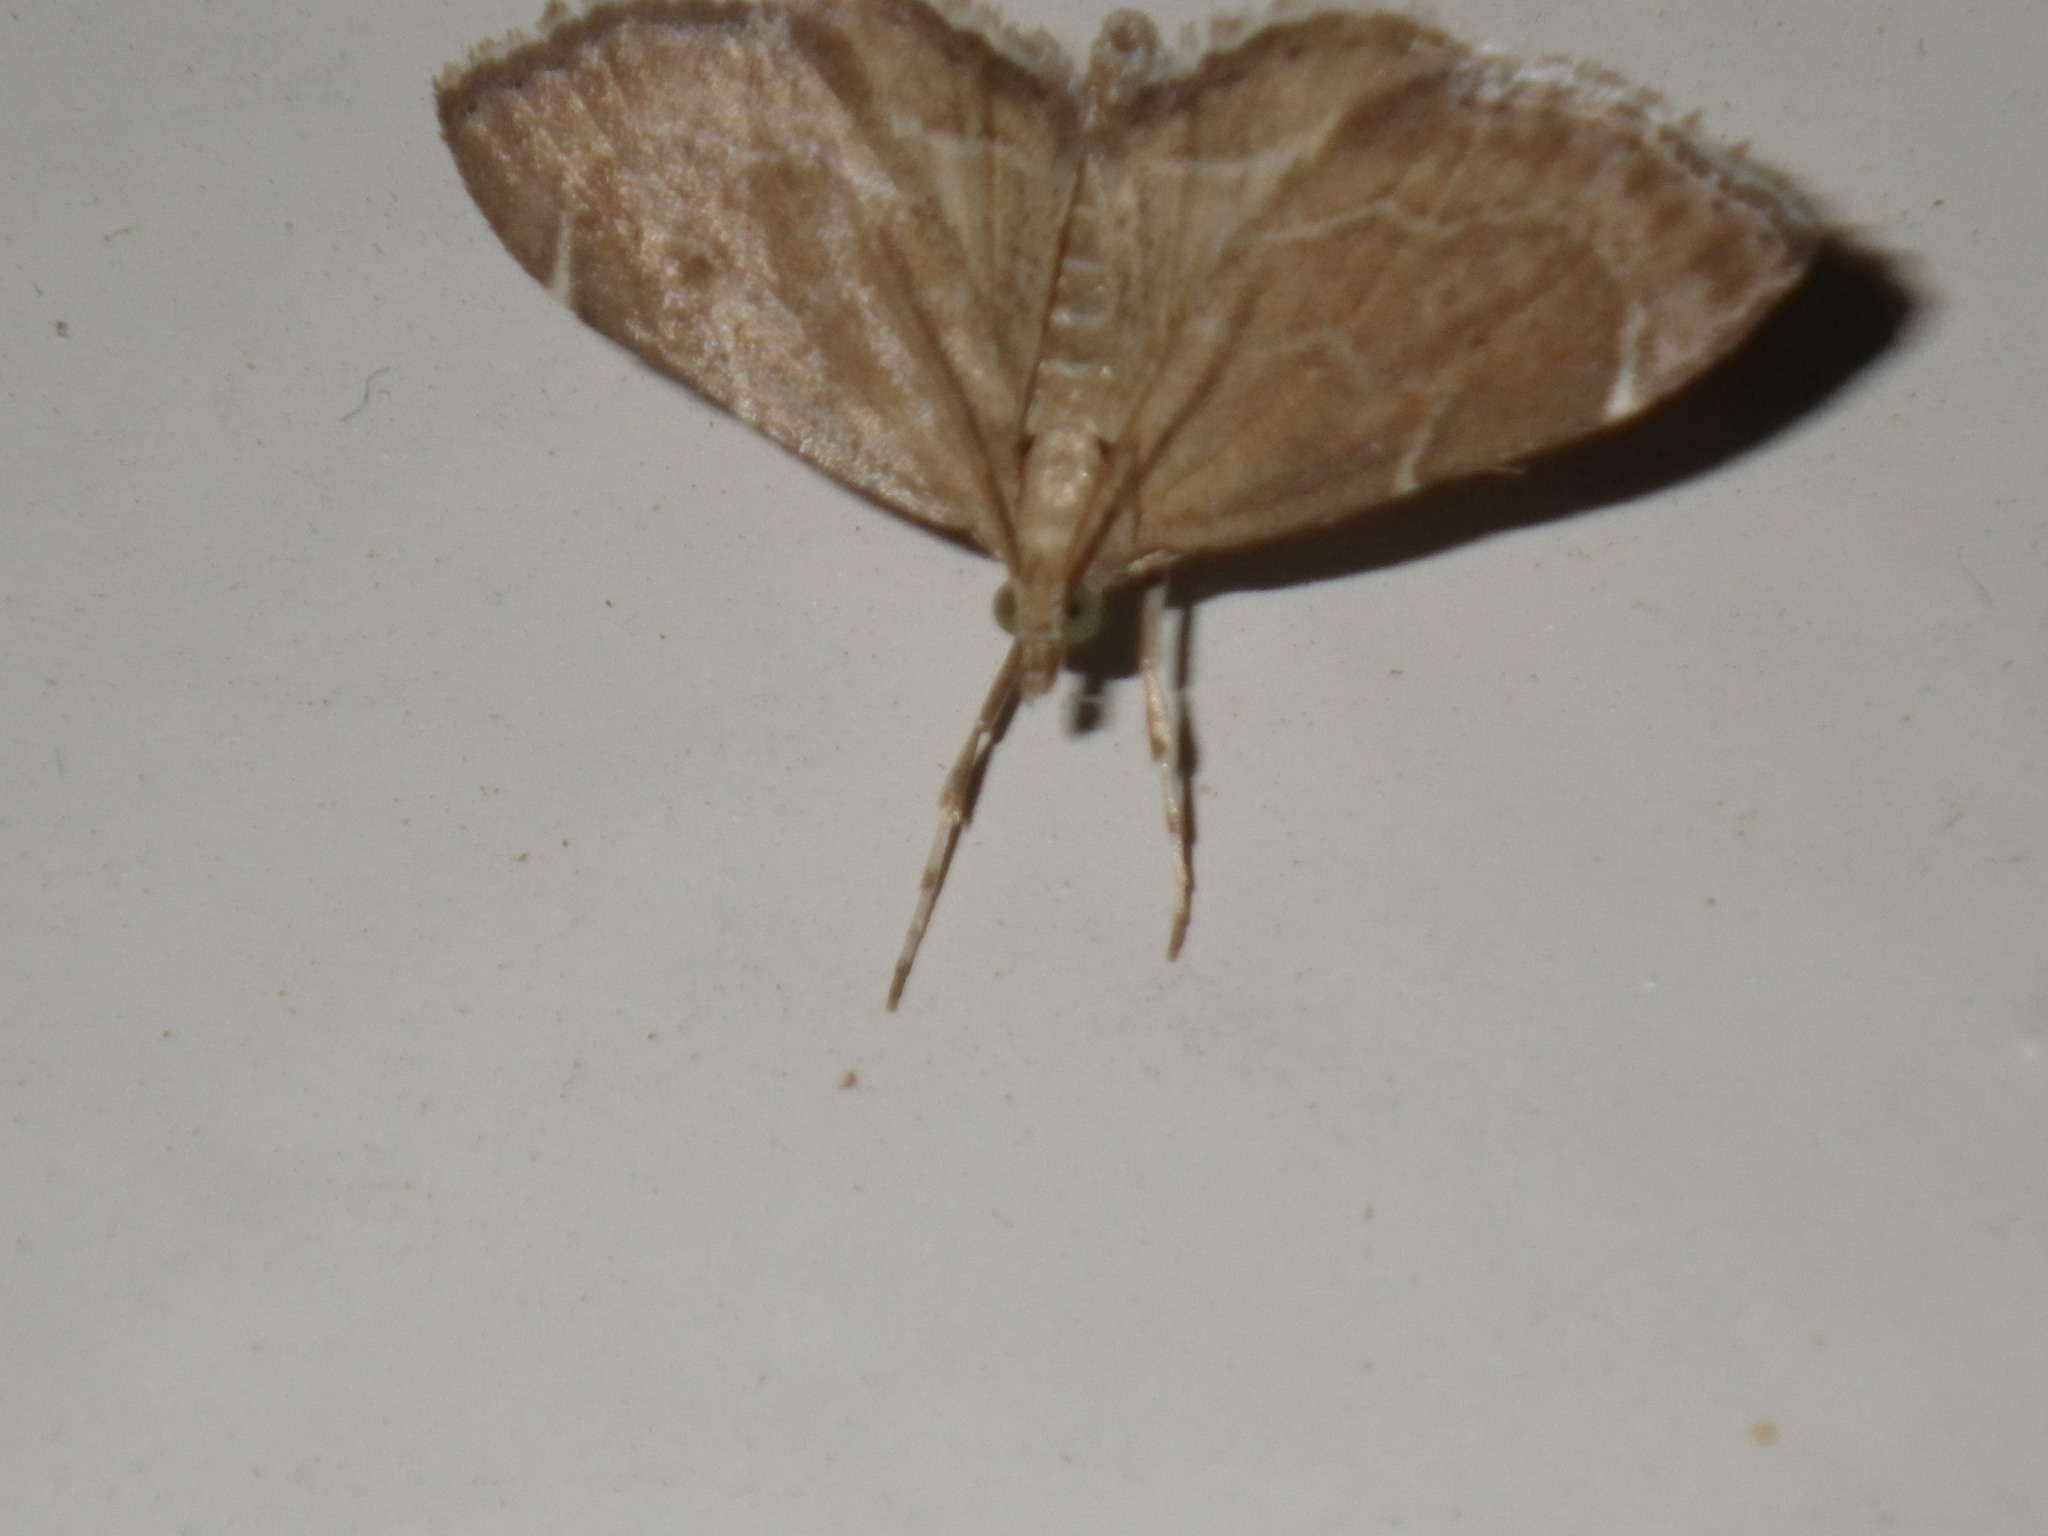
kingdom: Animalia
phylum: Arthropoda
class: Insecta
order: Lepidoptera
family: Crambidae
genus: Stegea
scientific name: Stegea salutalis
